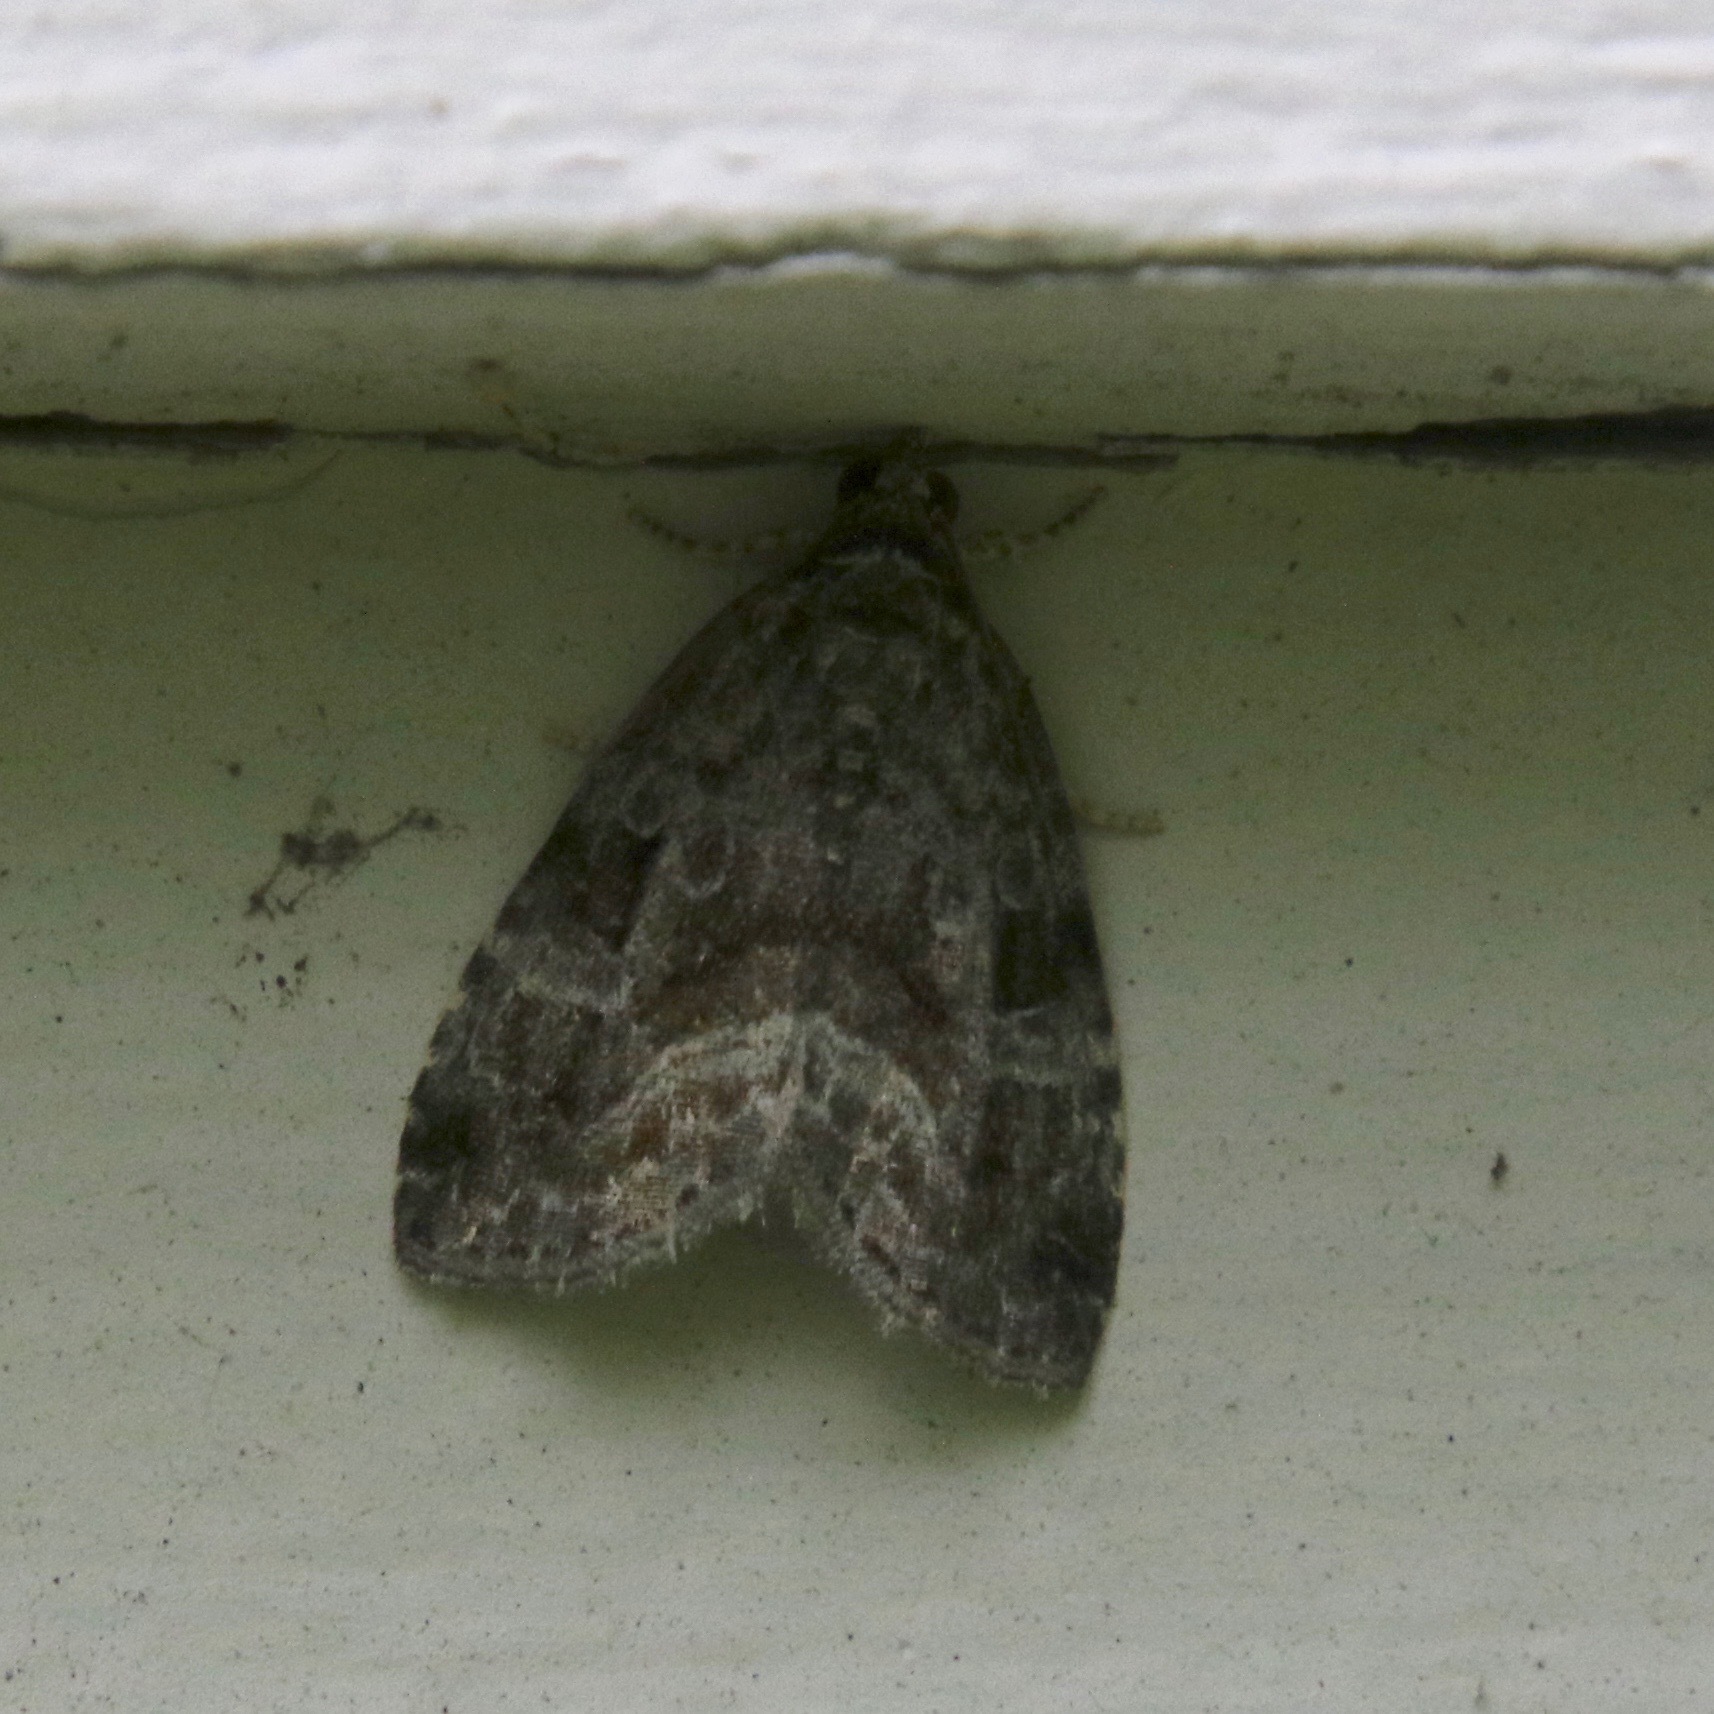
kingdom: Animalia
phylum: Arthropoda
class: Insecta
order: Lepidoptera
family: Noctuidae
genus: Protodeltote
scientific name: Protodeltote muscosula
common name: Large mossy glyph
